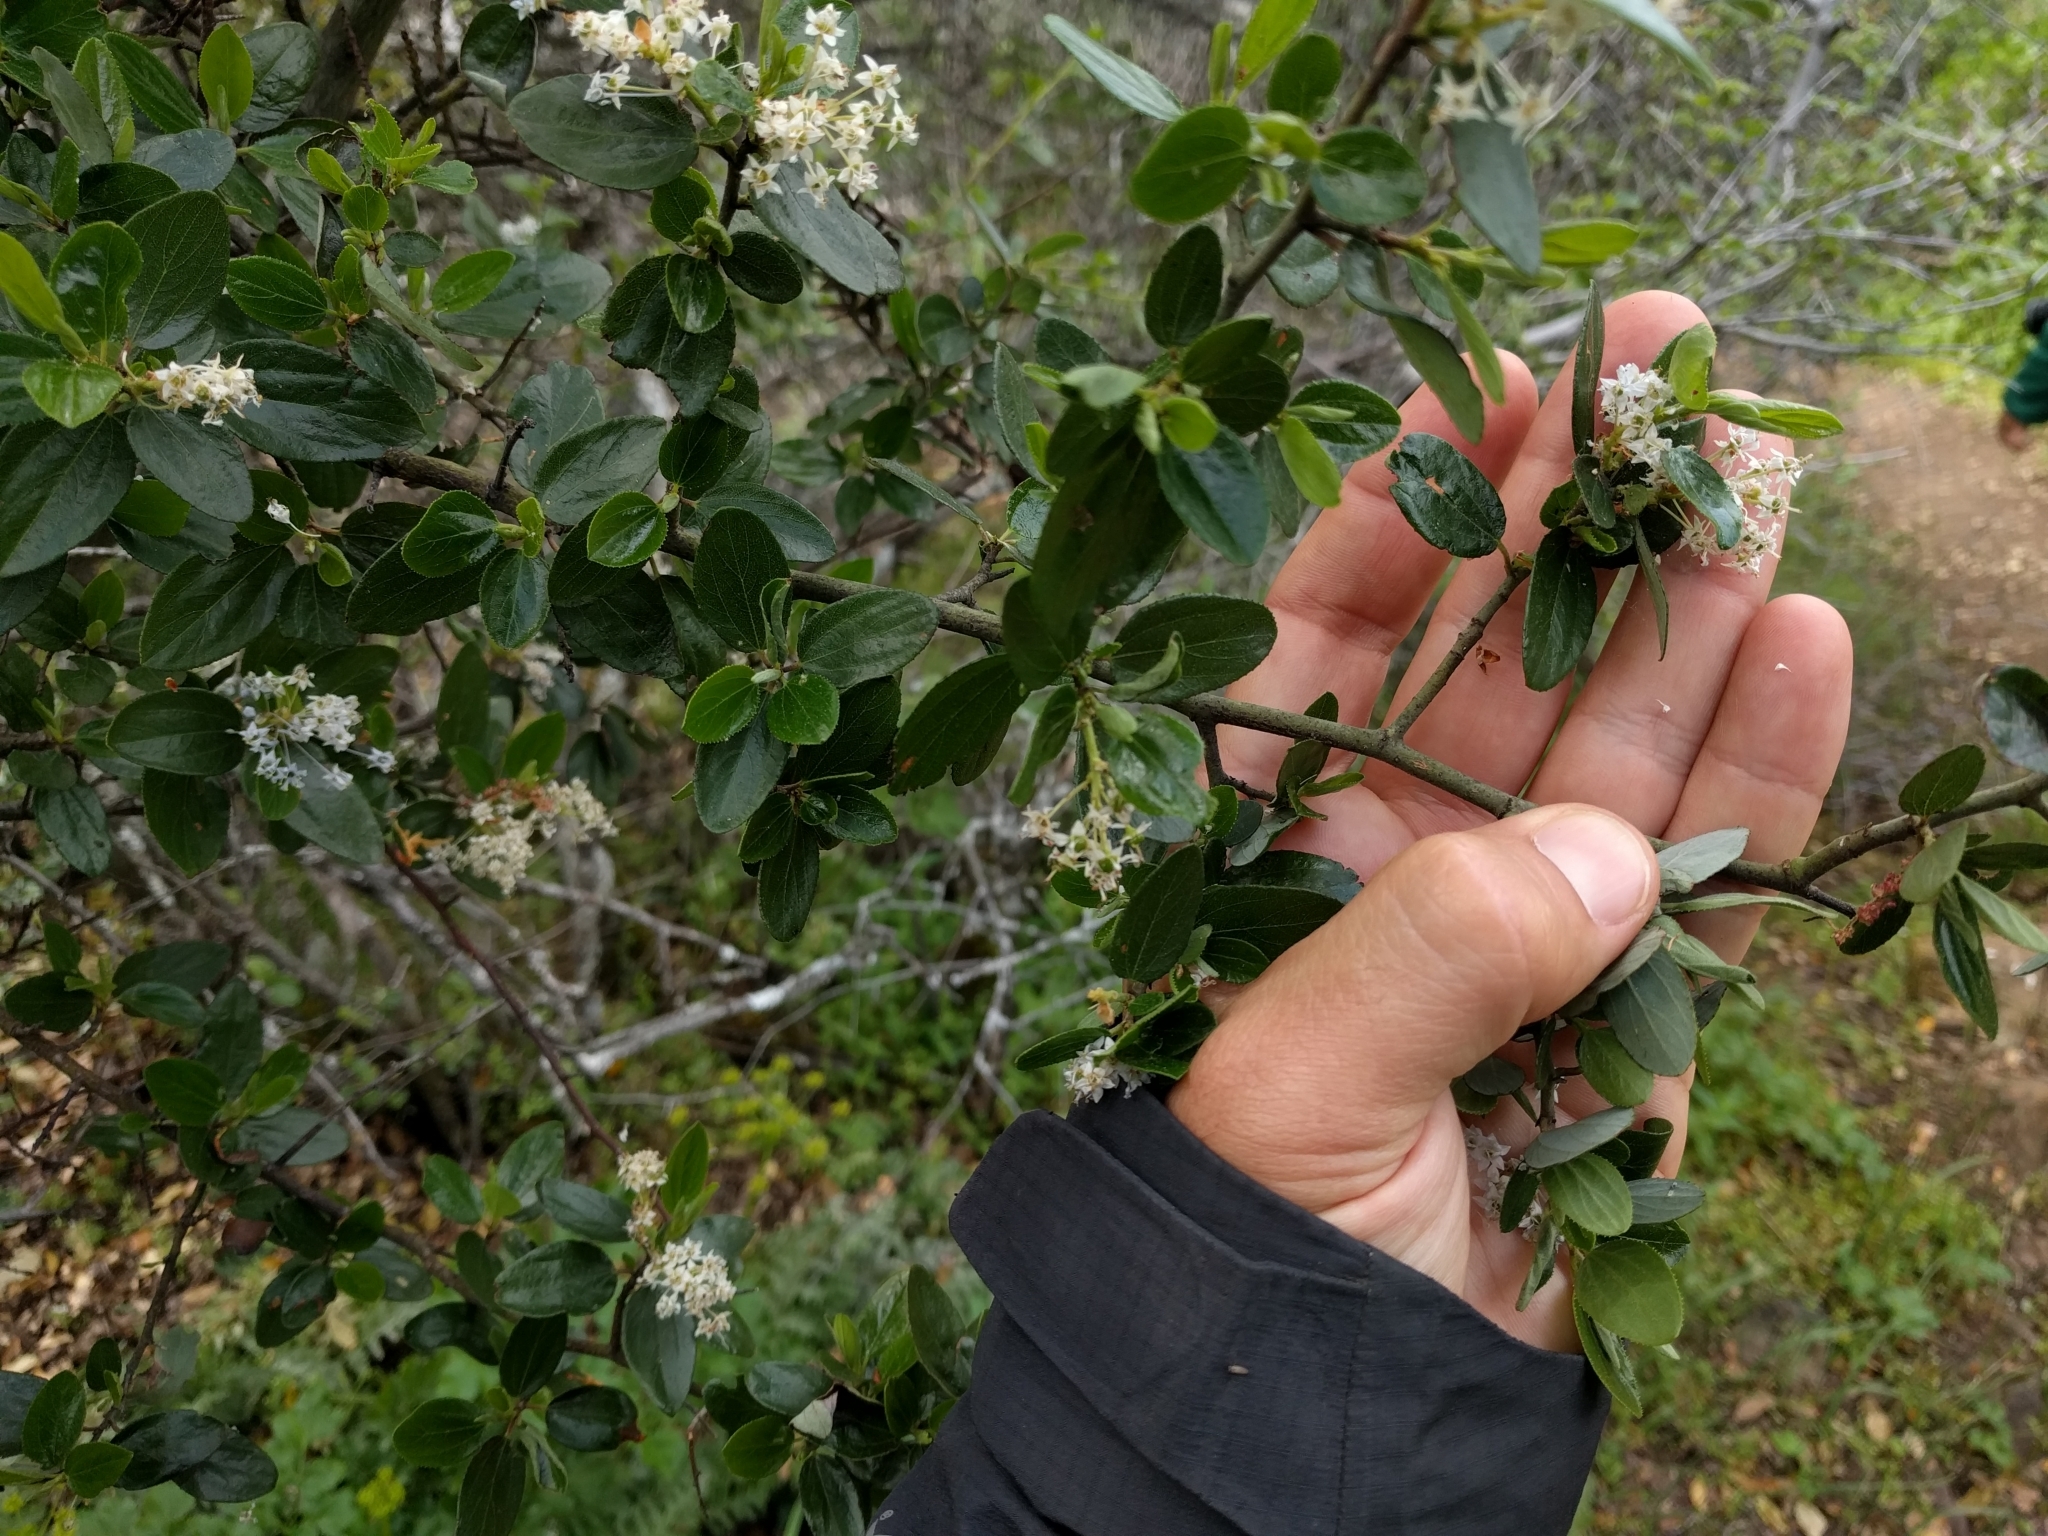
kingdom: Plantae
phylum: Tracheophyta
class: Magnoliopsida
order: Rosales
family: Rhamnaceae
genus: Ceanothus
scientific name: Ceanothus oliganthus
